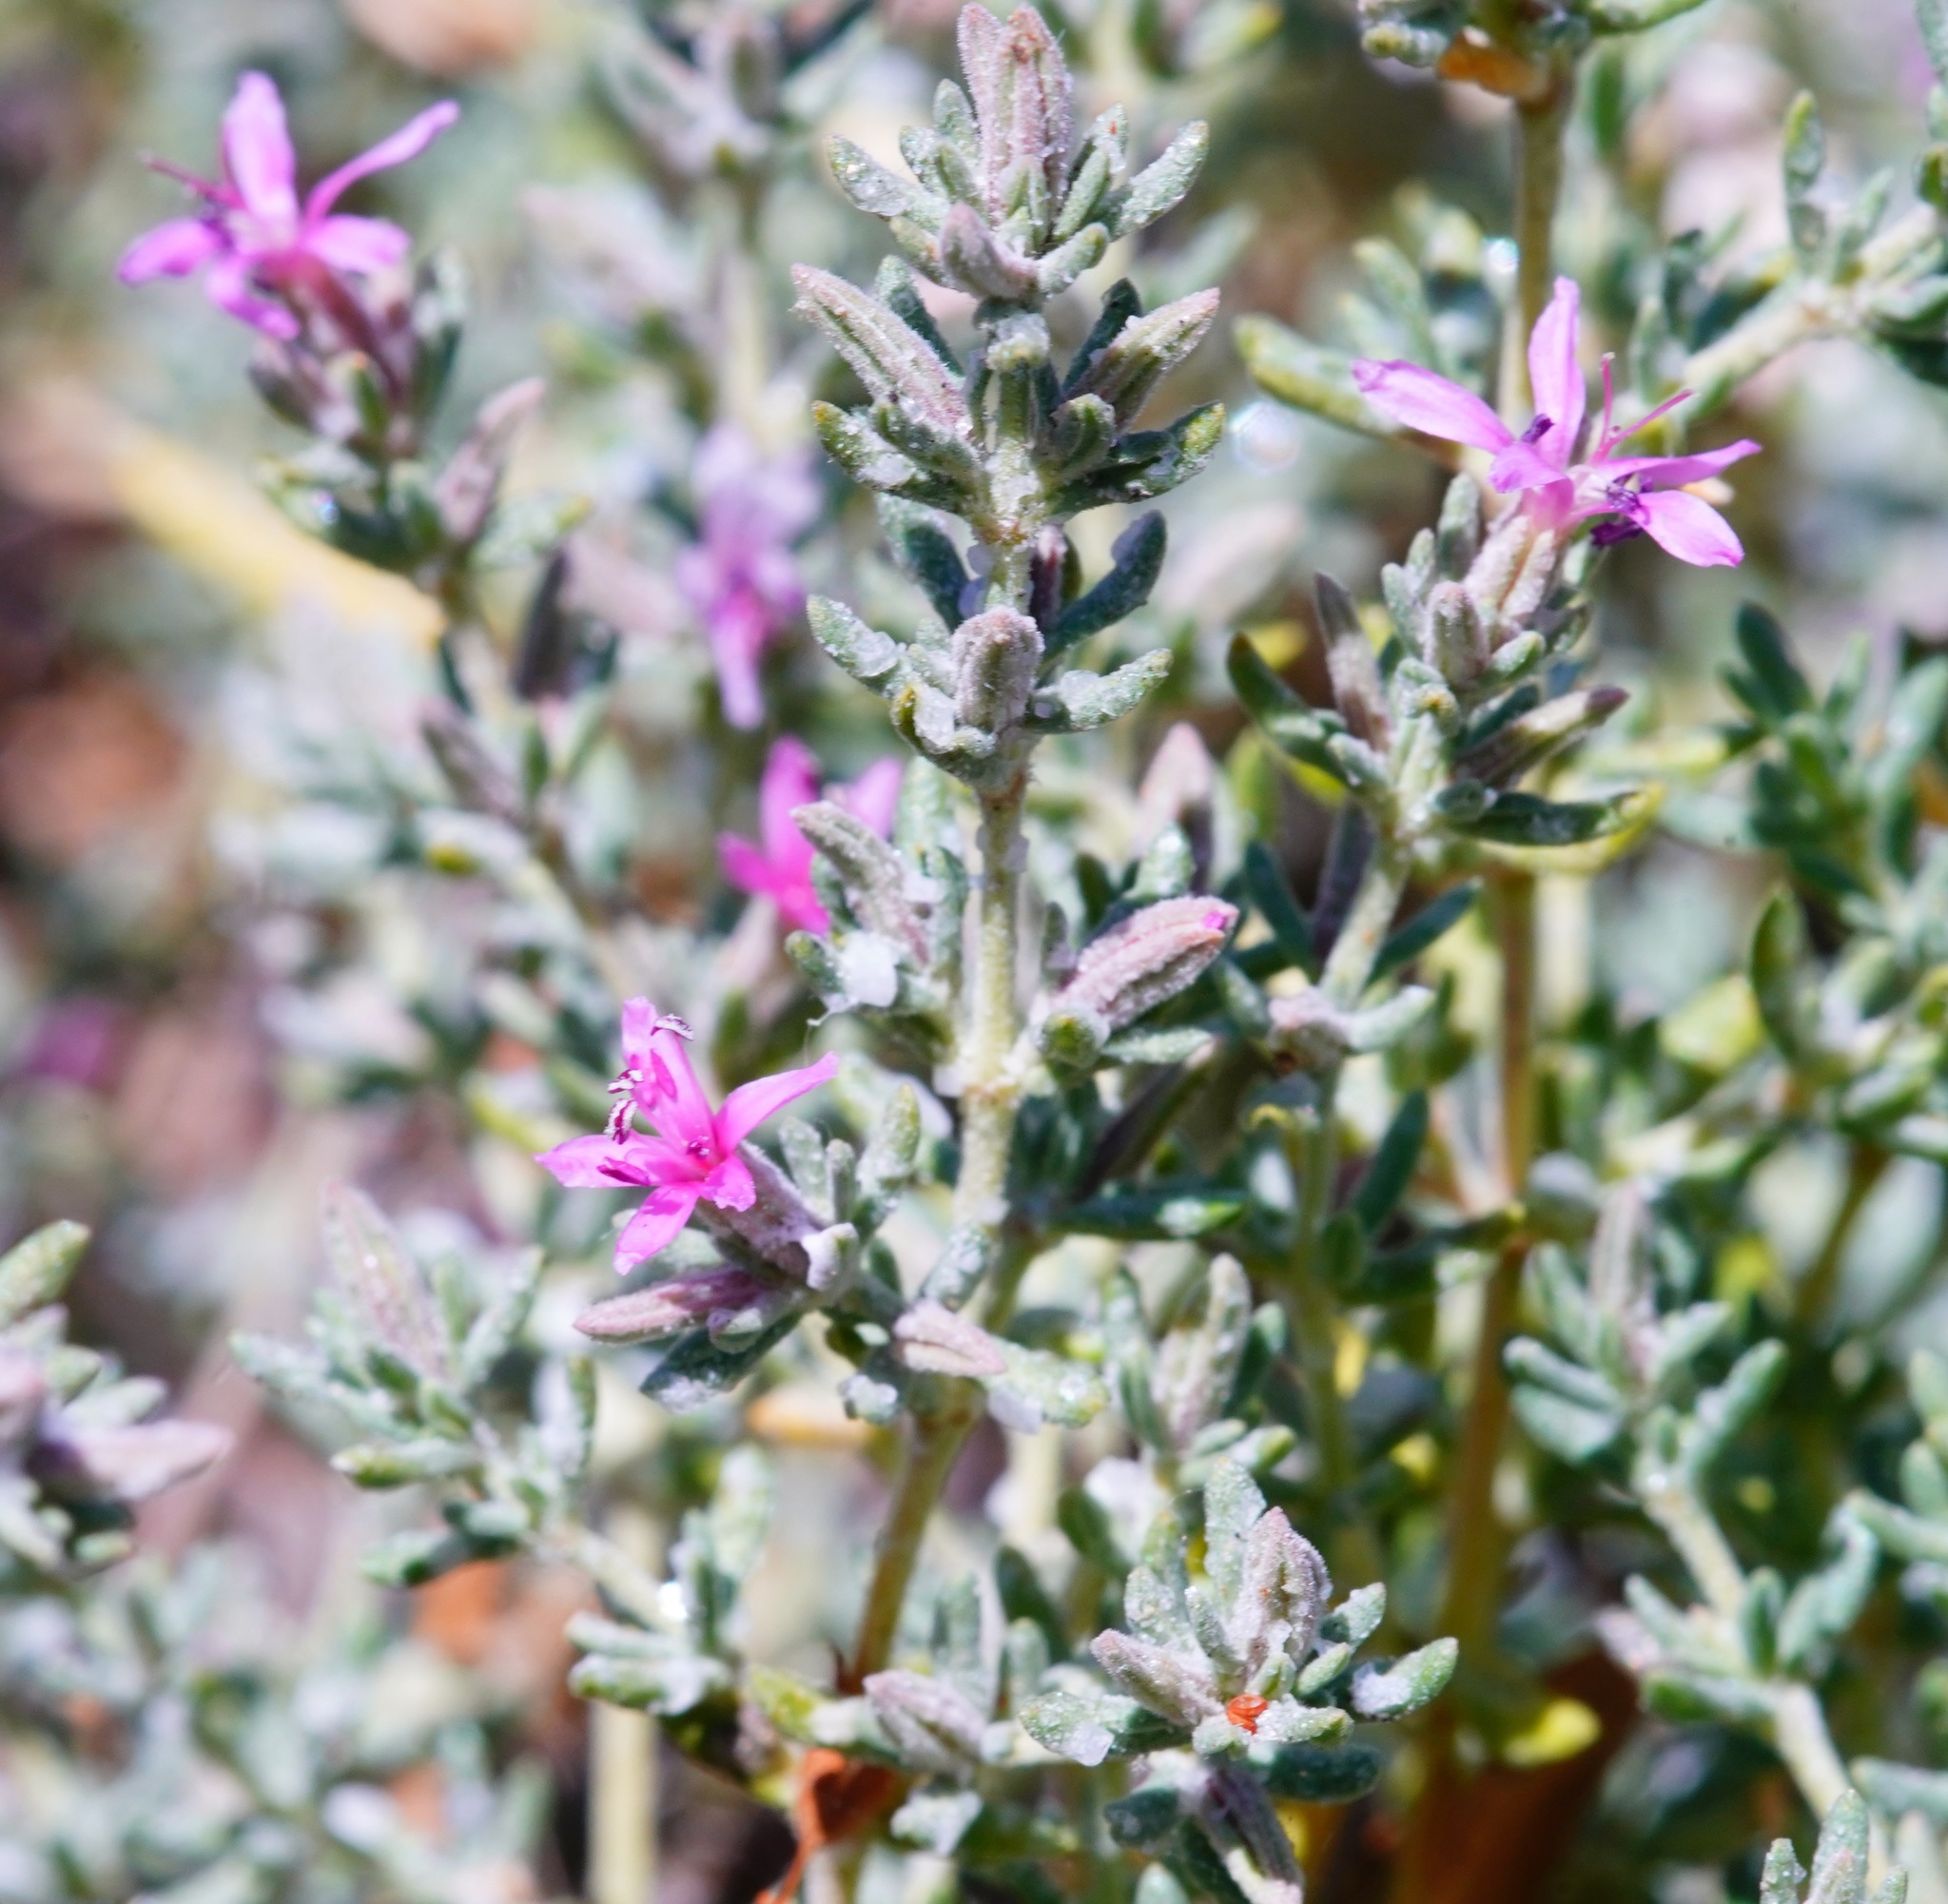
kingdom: Plantae
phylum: Tracheophyta
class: Magnoliopsida
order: Caryophyllales
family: Frankeniaceae
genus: Frankenia
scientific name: Frankenia salina
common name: Alkali seaheath
